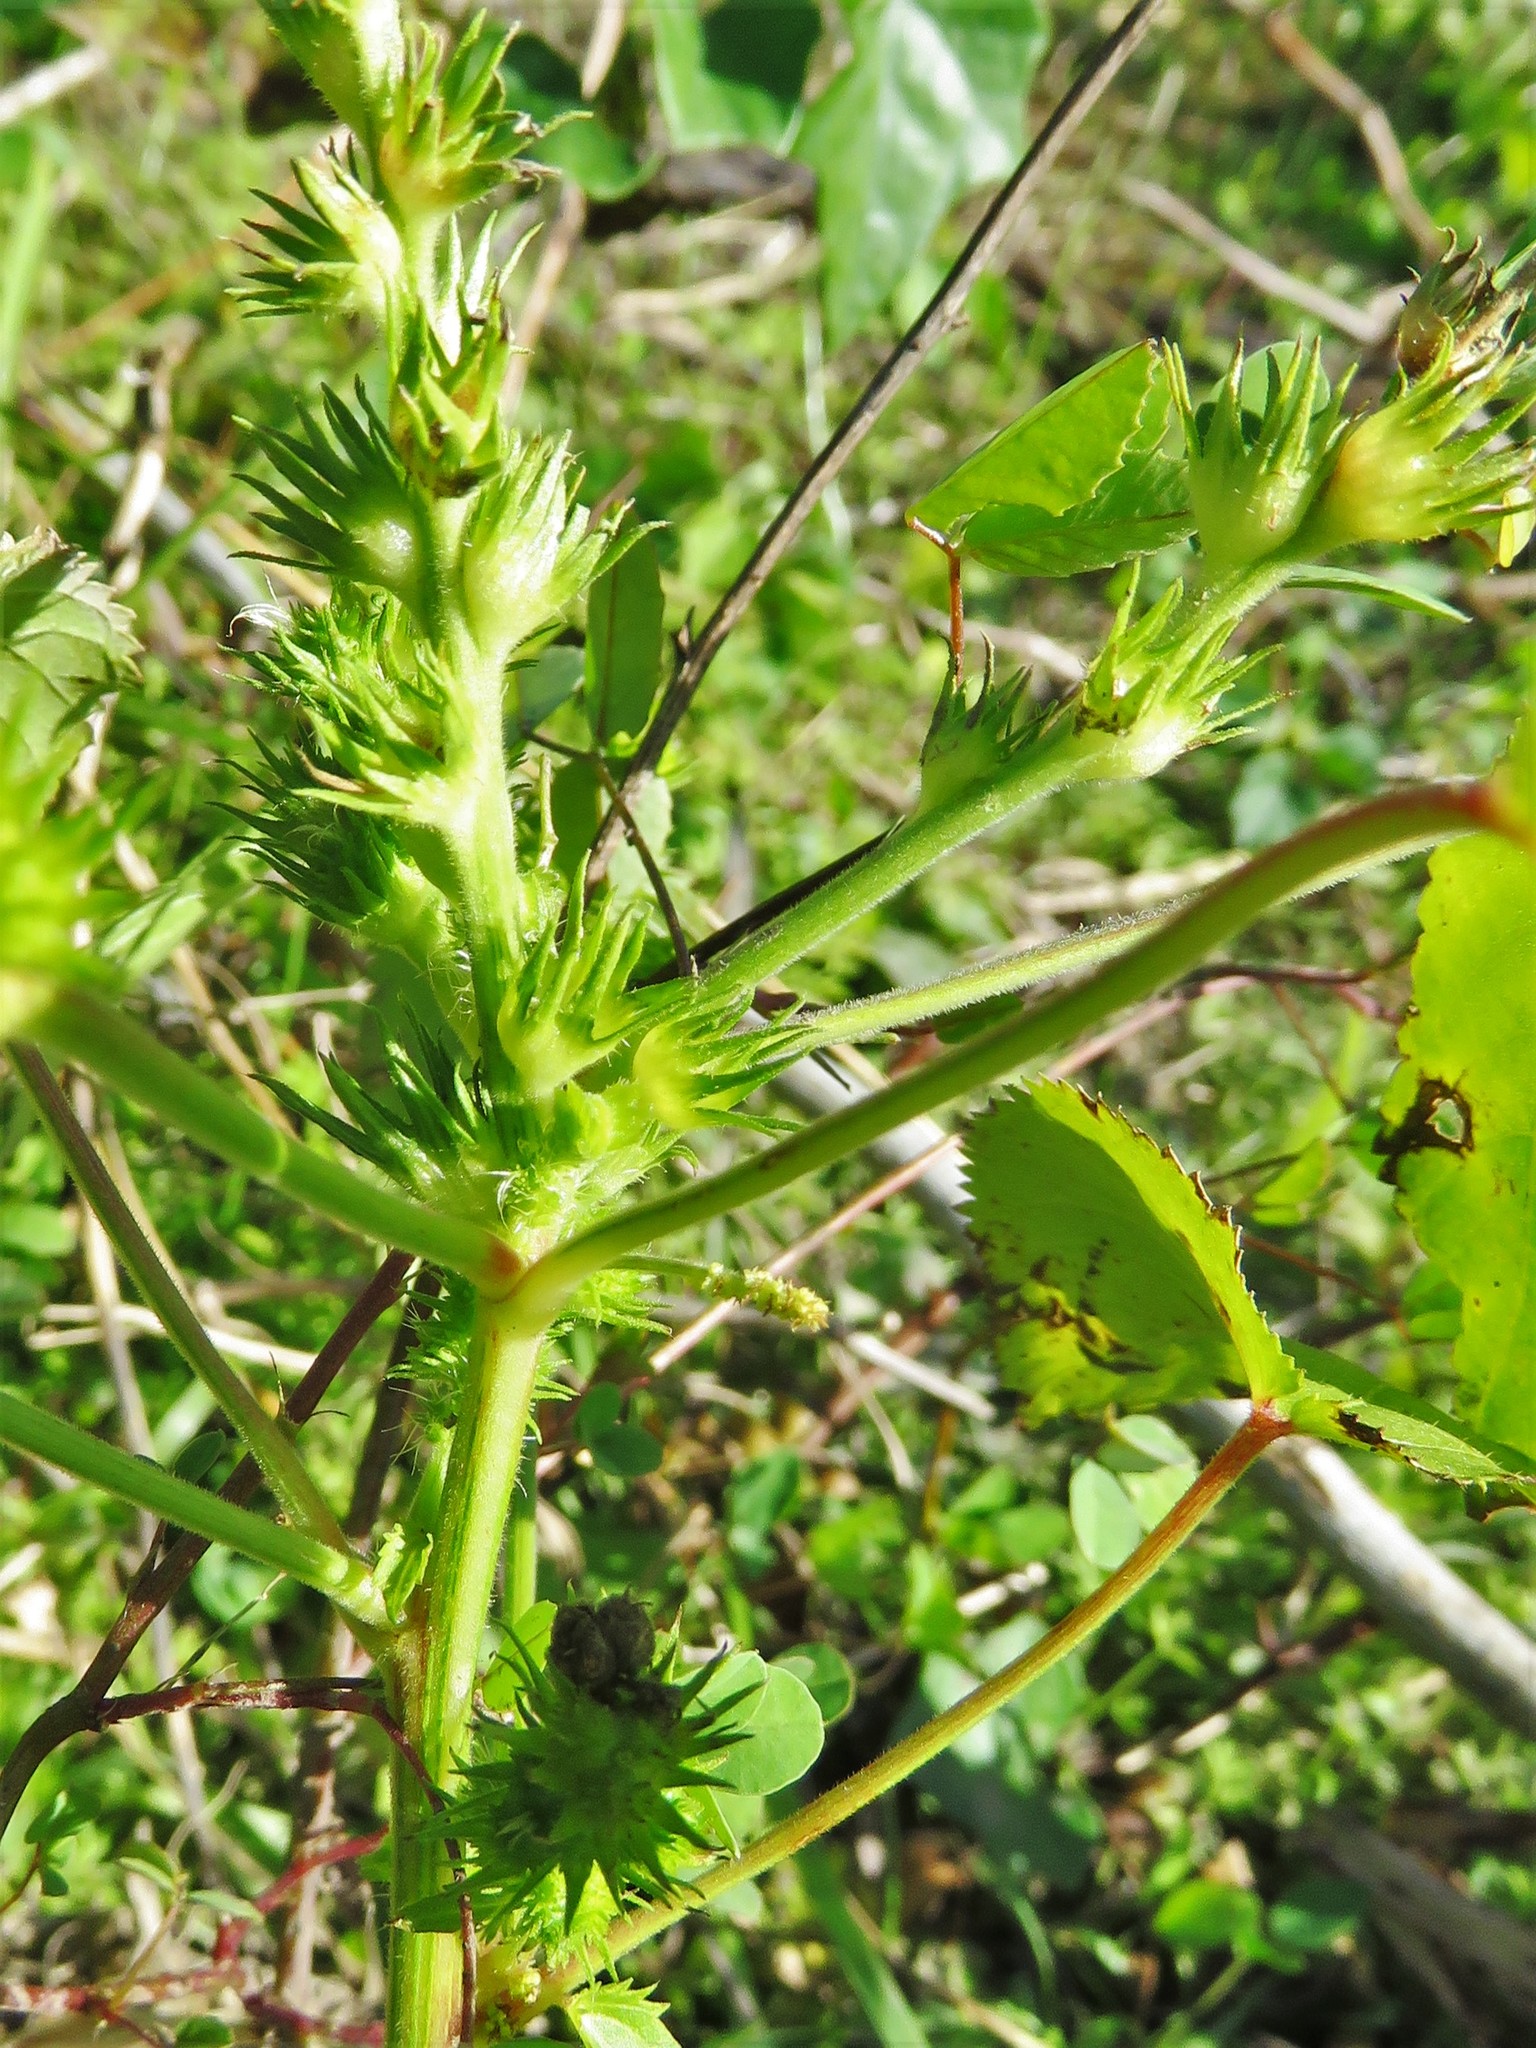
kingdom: Plantae
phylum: Tracheophyta
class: Magnoliopsida
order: Malpighiales
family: Euphorbiaceae
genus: Acalypha
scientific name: Acalypha ostryifolia
